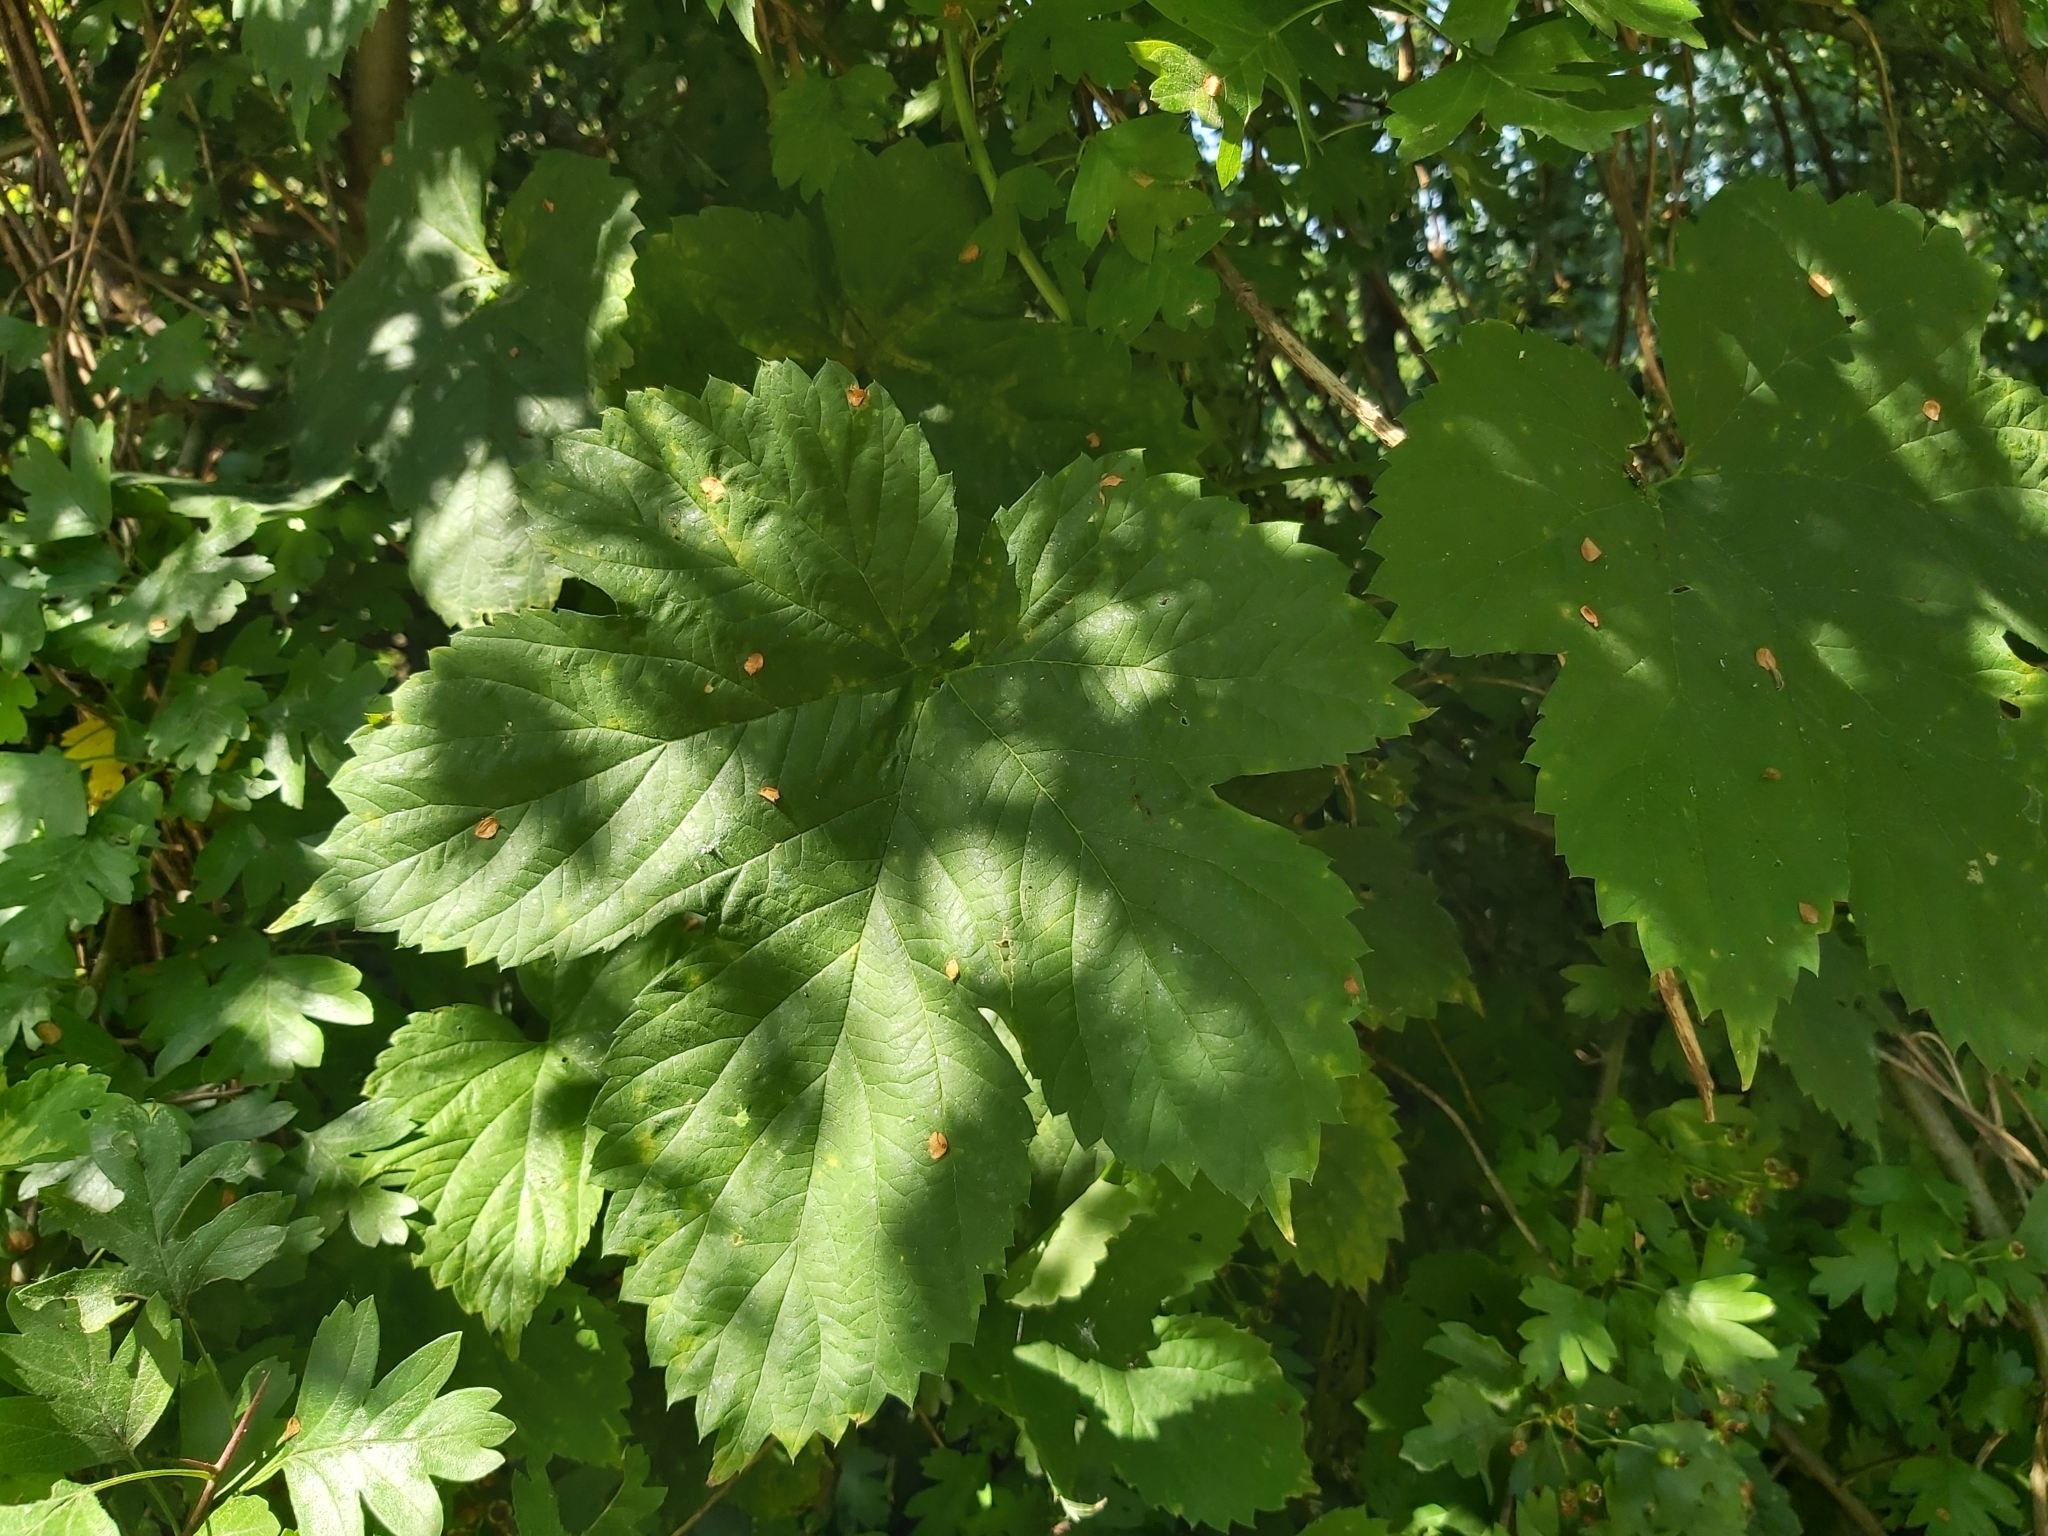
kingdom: Plantae
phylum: Tracheophyta
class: Magnoliopsida
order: Rosales
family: Cannabaceae
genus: Humulus
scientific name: Humulus lupulus
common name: Hop
